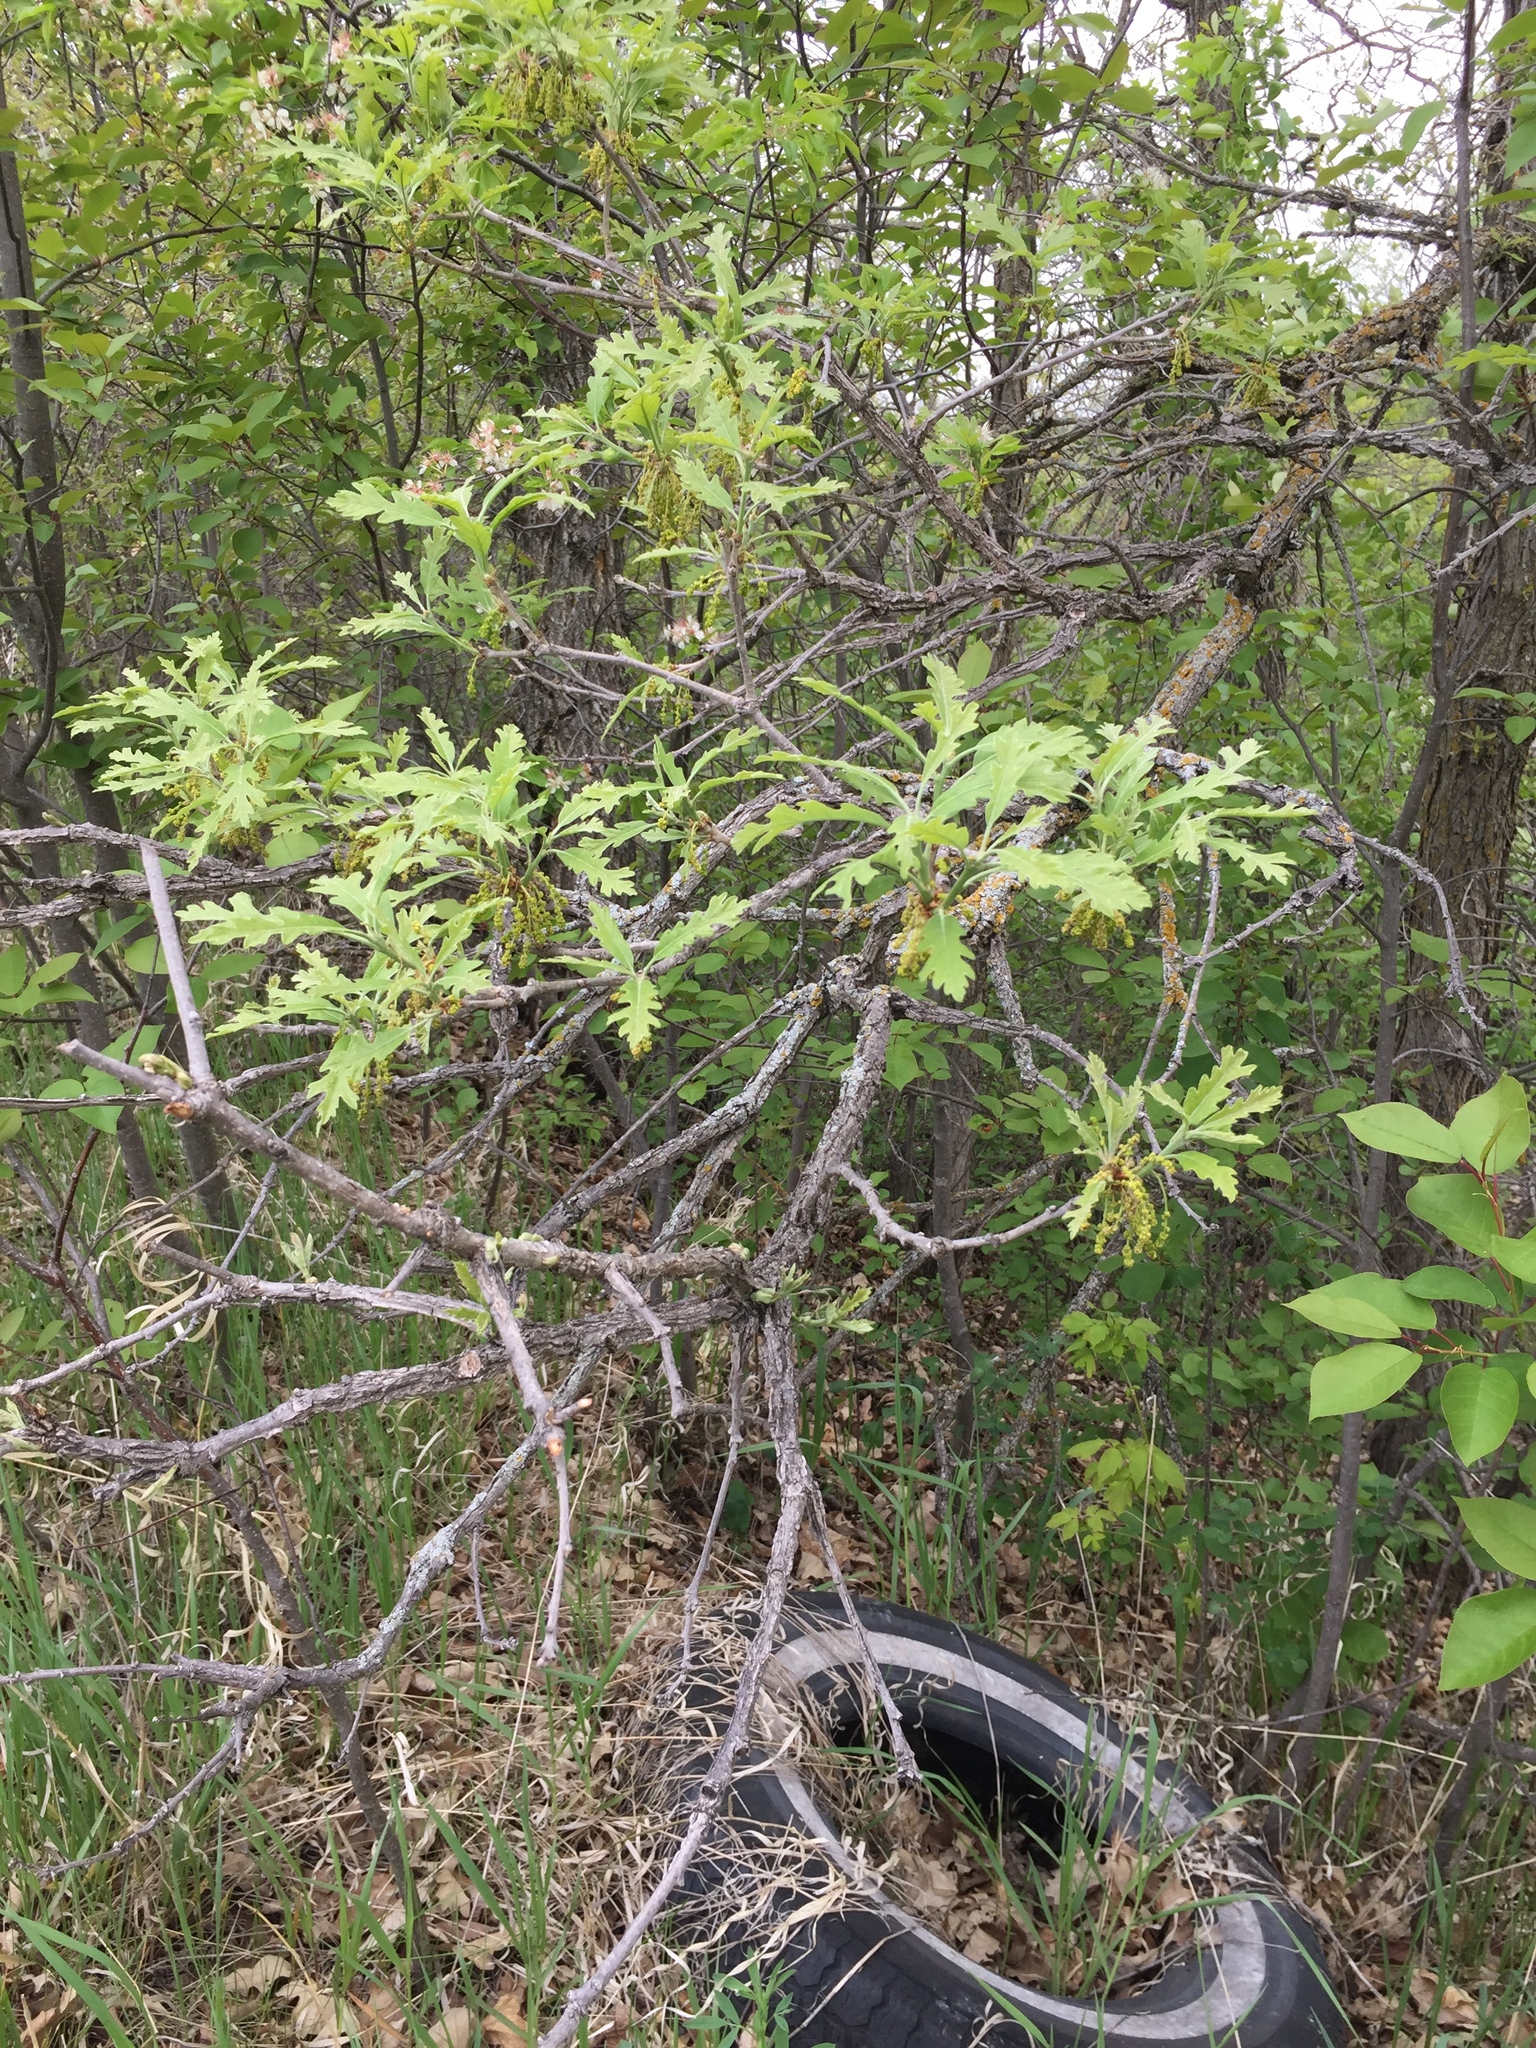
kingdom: Plantae
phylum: Tracheophyta
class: Magnoliopsida
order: Fagales
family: Fagaceae
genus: Quercus
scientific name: Quercus macrocarpa
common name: Bur oak
